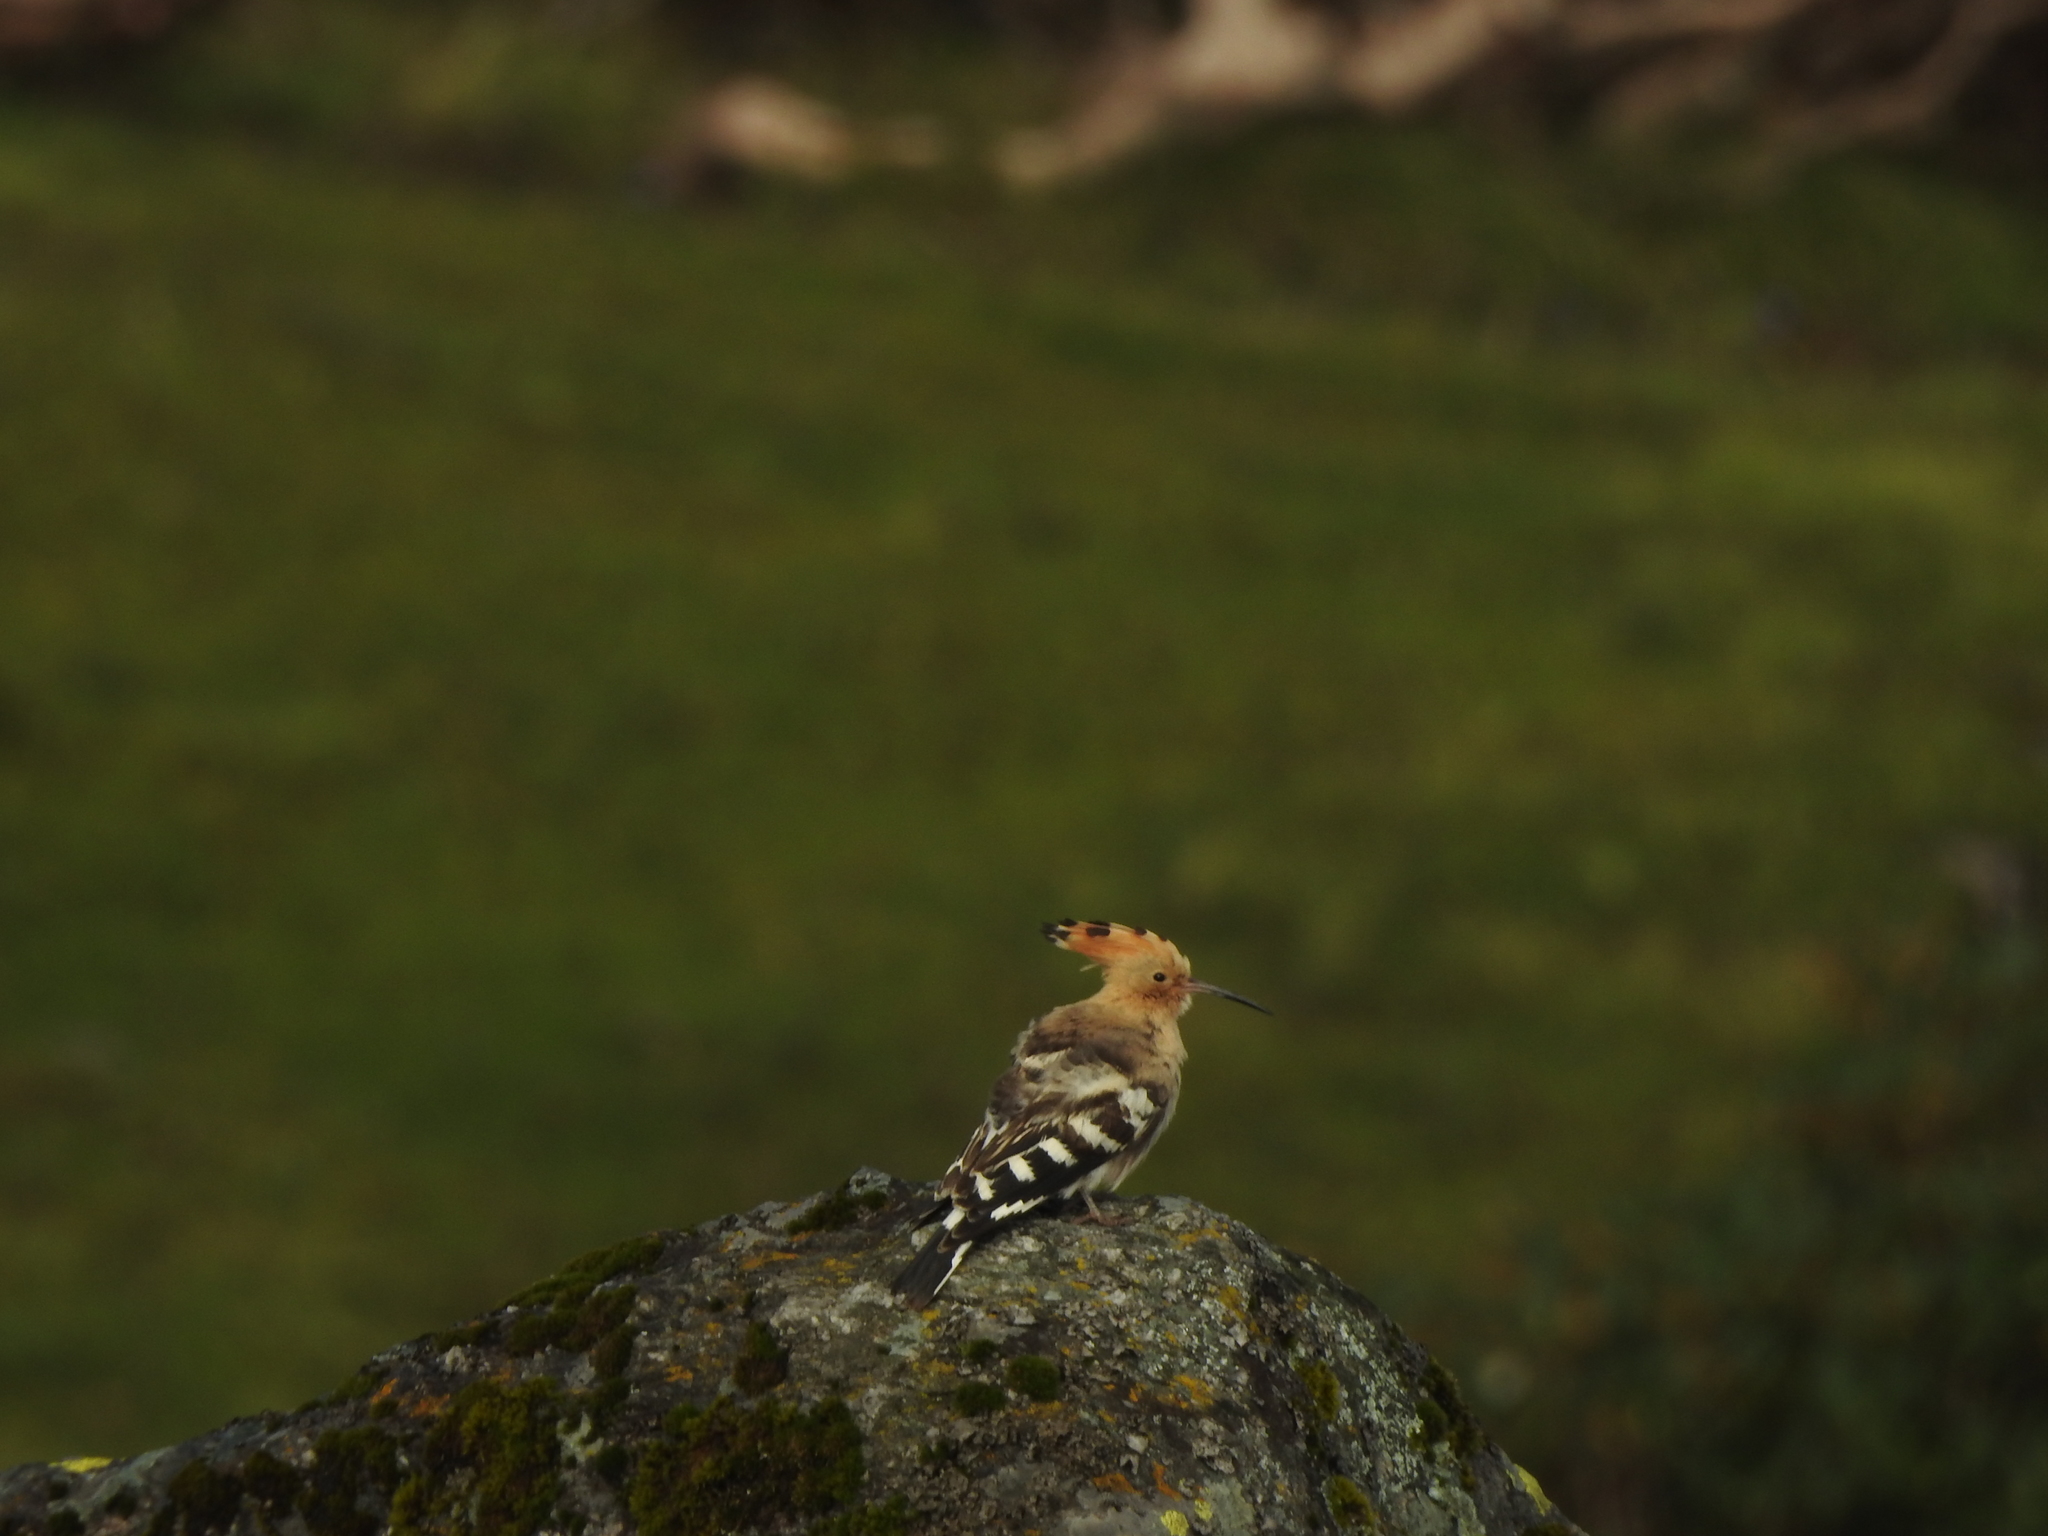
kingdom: Animalia
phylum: Chordata
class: Aves
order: Bucerotiformes
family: Upupidae
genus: Upupa
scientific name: Upupa epops
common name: Eurasian hoopoe
